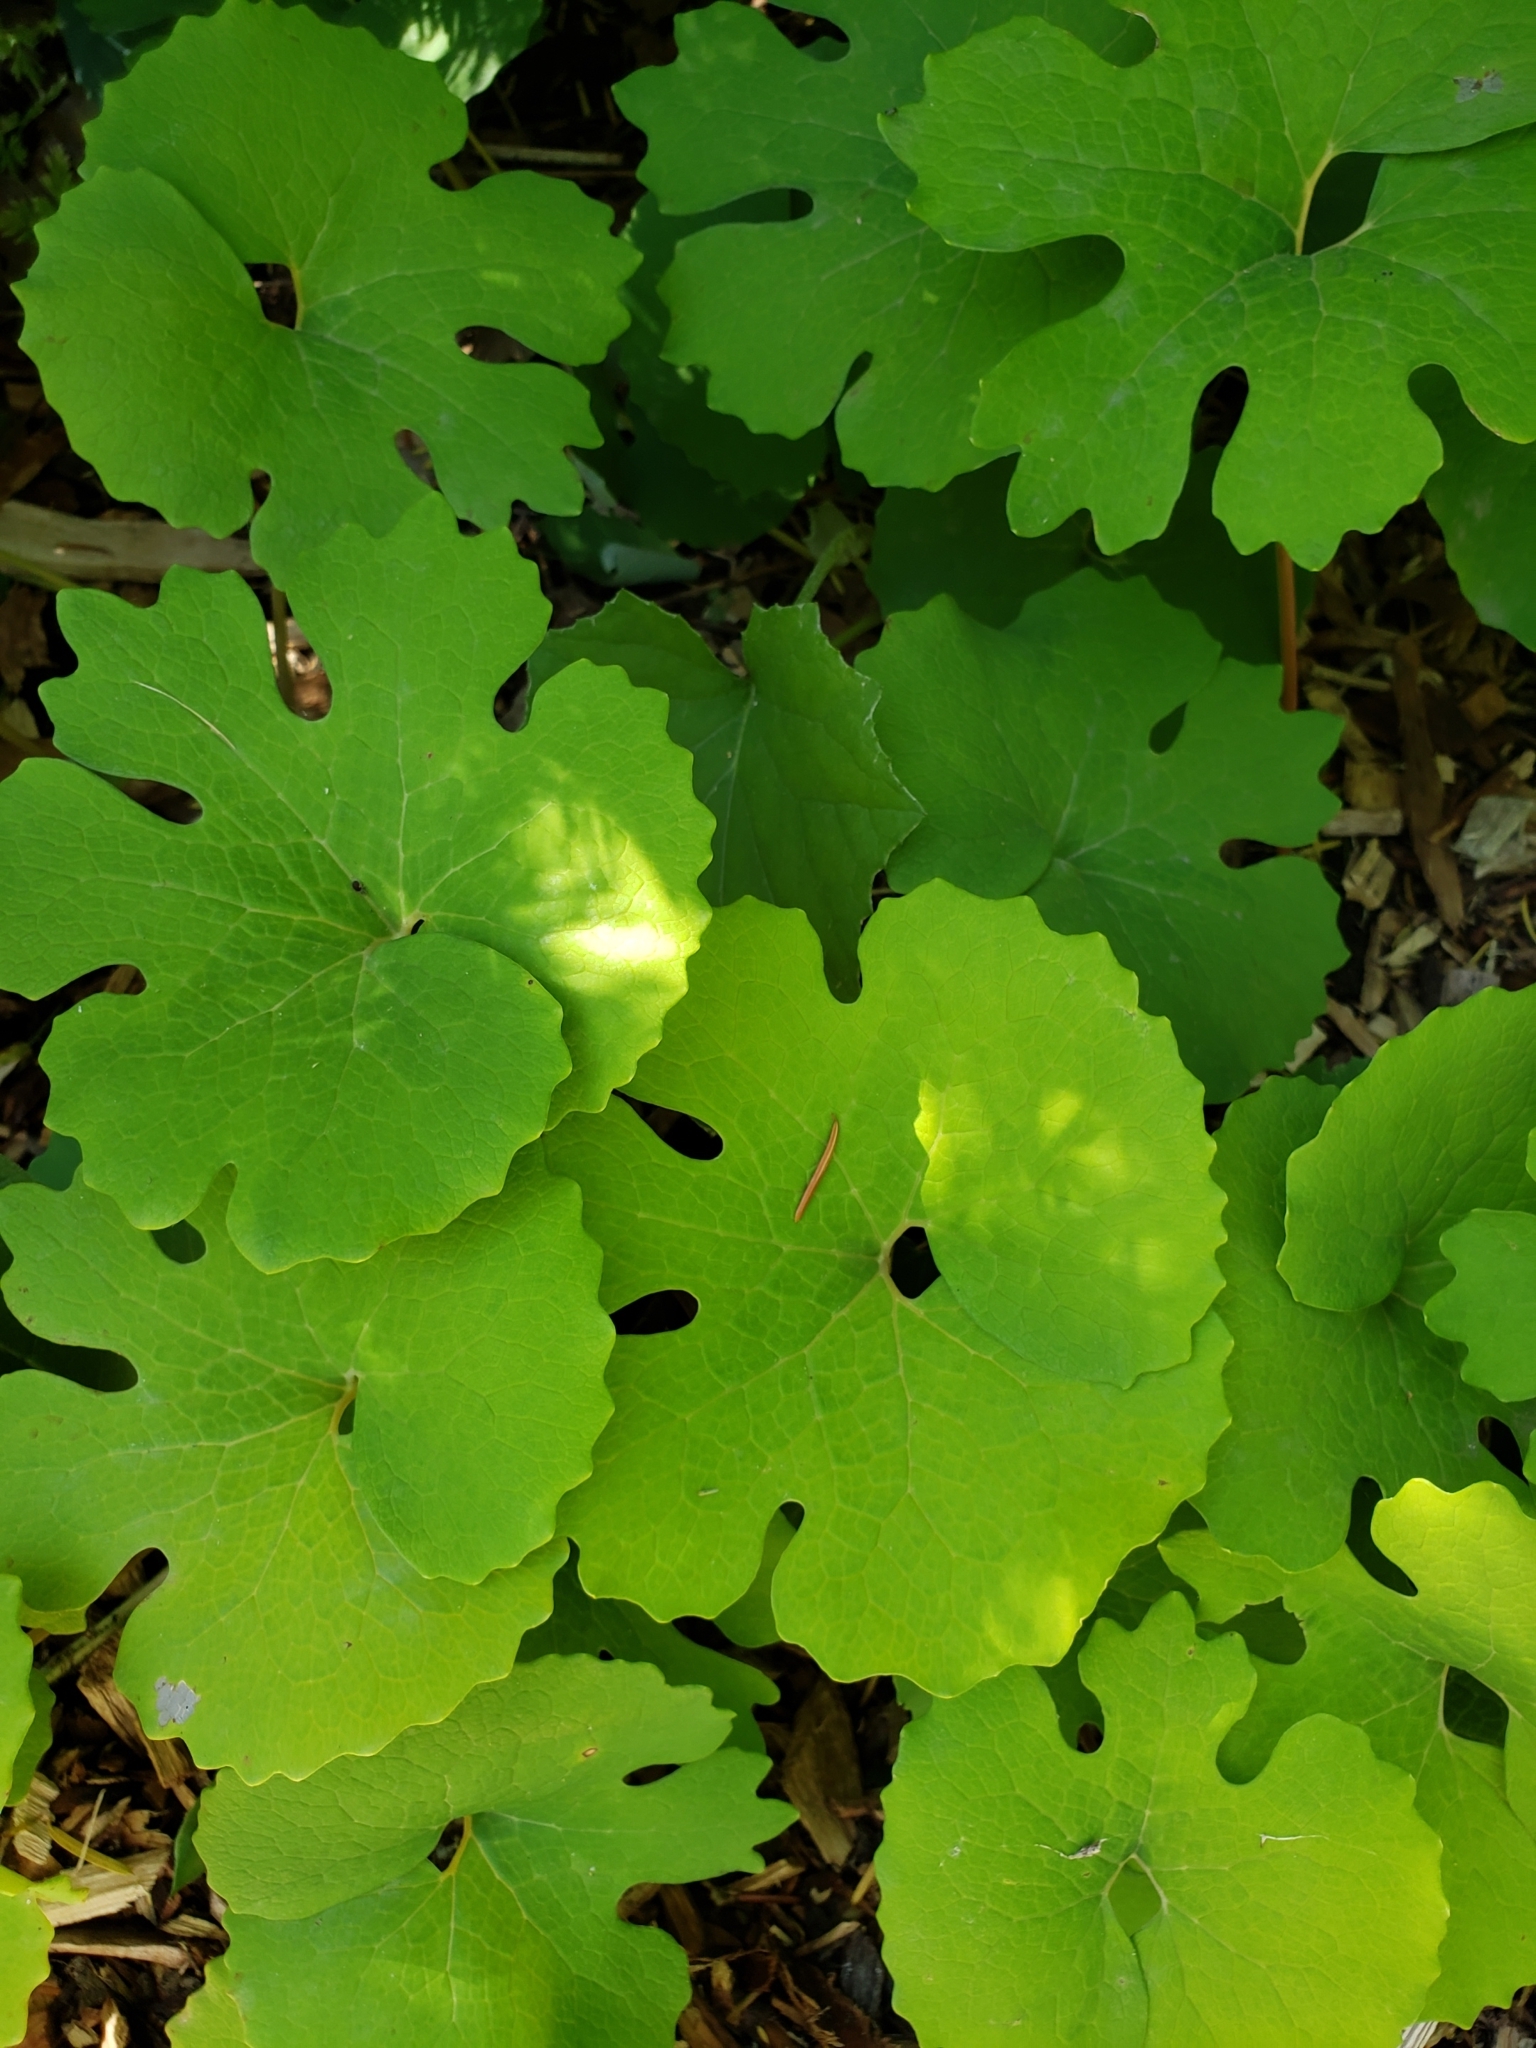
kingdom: Plantae
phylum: Tracheophyta
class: Magnoliopsida
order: Ranunculales
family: Papaveraceae
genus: Sanguinaria
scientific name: Sanguinaria canadensis
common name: Bloodroot
